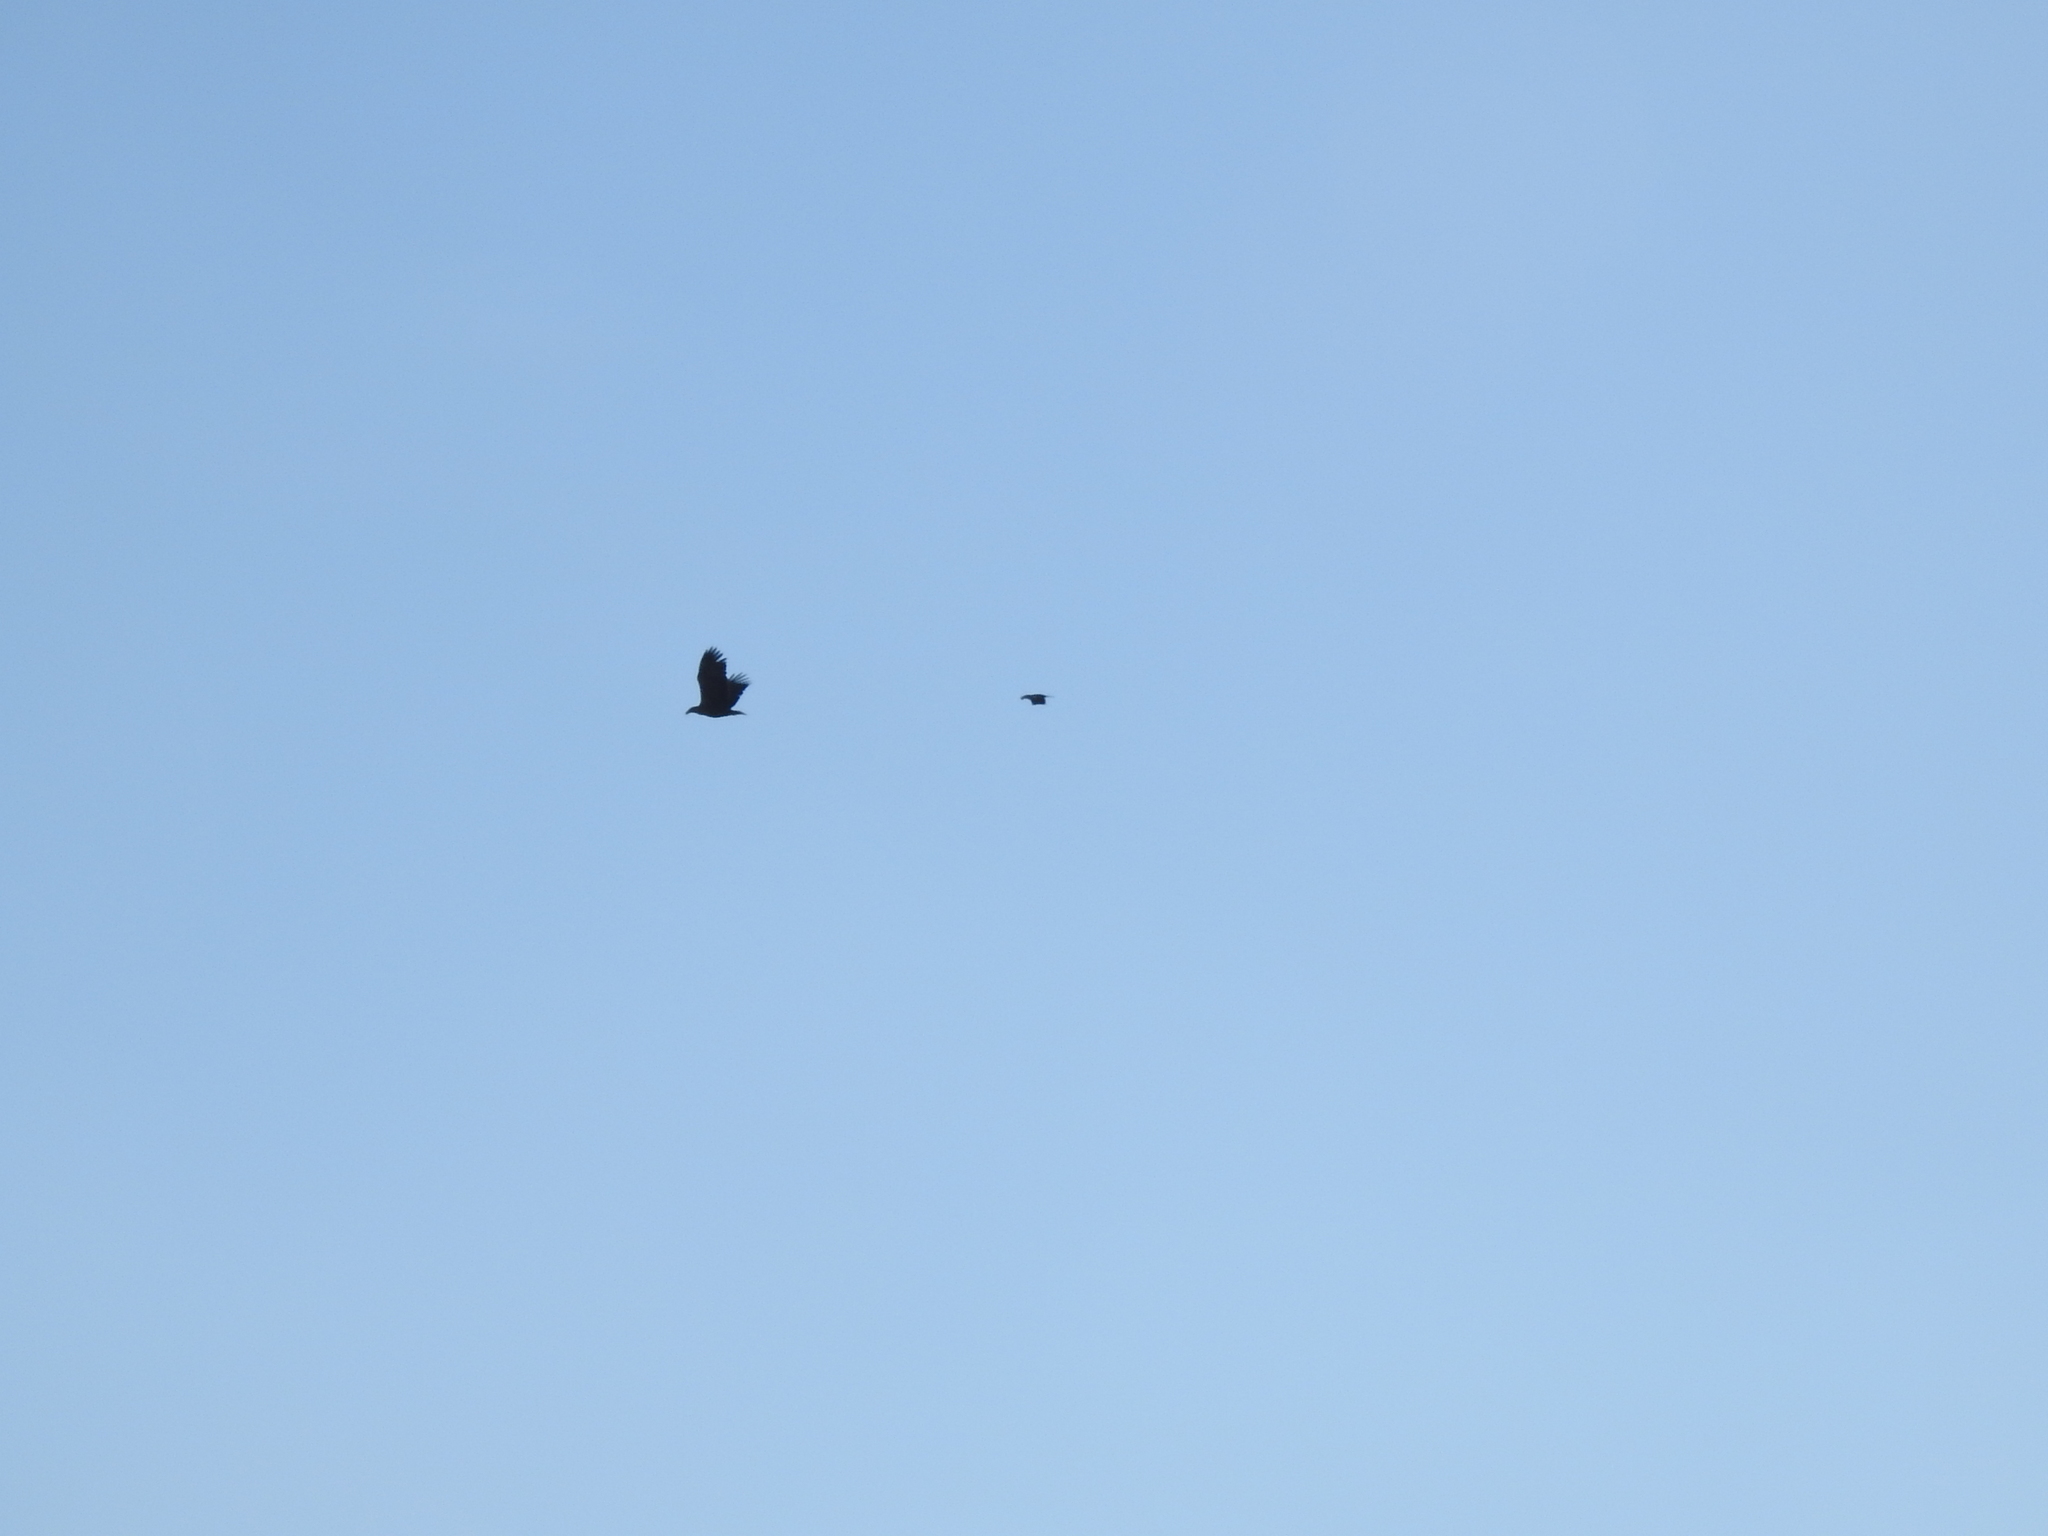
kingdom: Animalia
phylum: Chordata
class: Aves
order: Accipitriformes
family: Accipitridae
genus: Haliaeetus
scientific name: Haliaeetus albicilla
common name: White-tailed eagle
